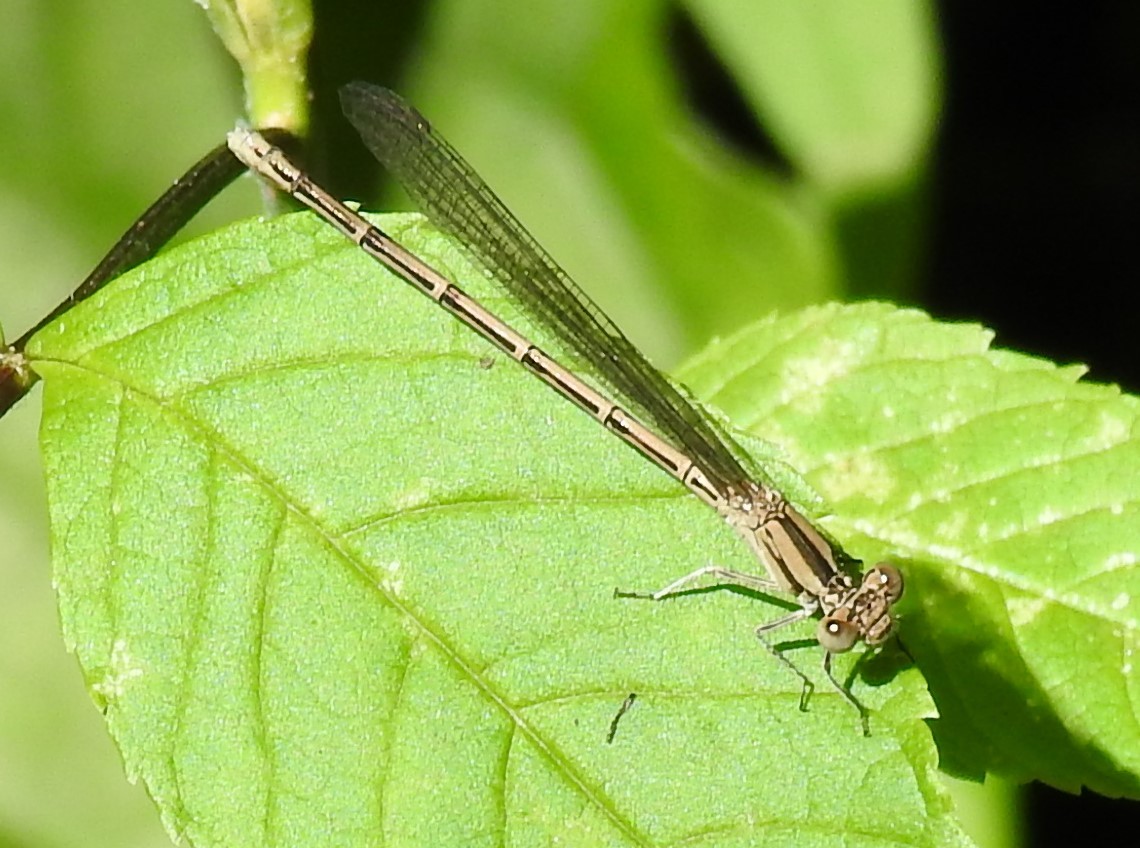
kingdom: Animalia
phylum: Arthropoda
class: Insecta
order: Odonata
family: Coenagrionidae
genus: Argia
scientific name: Argia fumipennis
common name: Variable dancer
